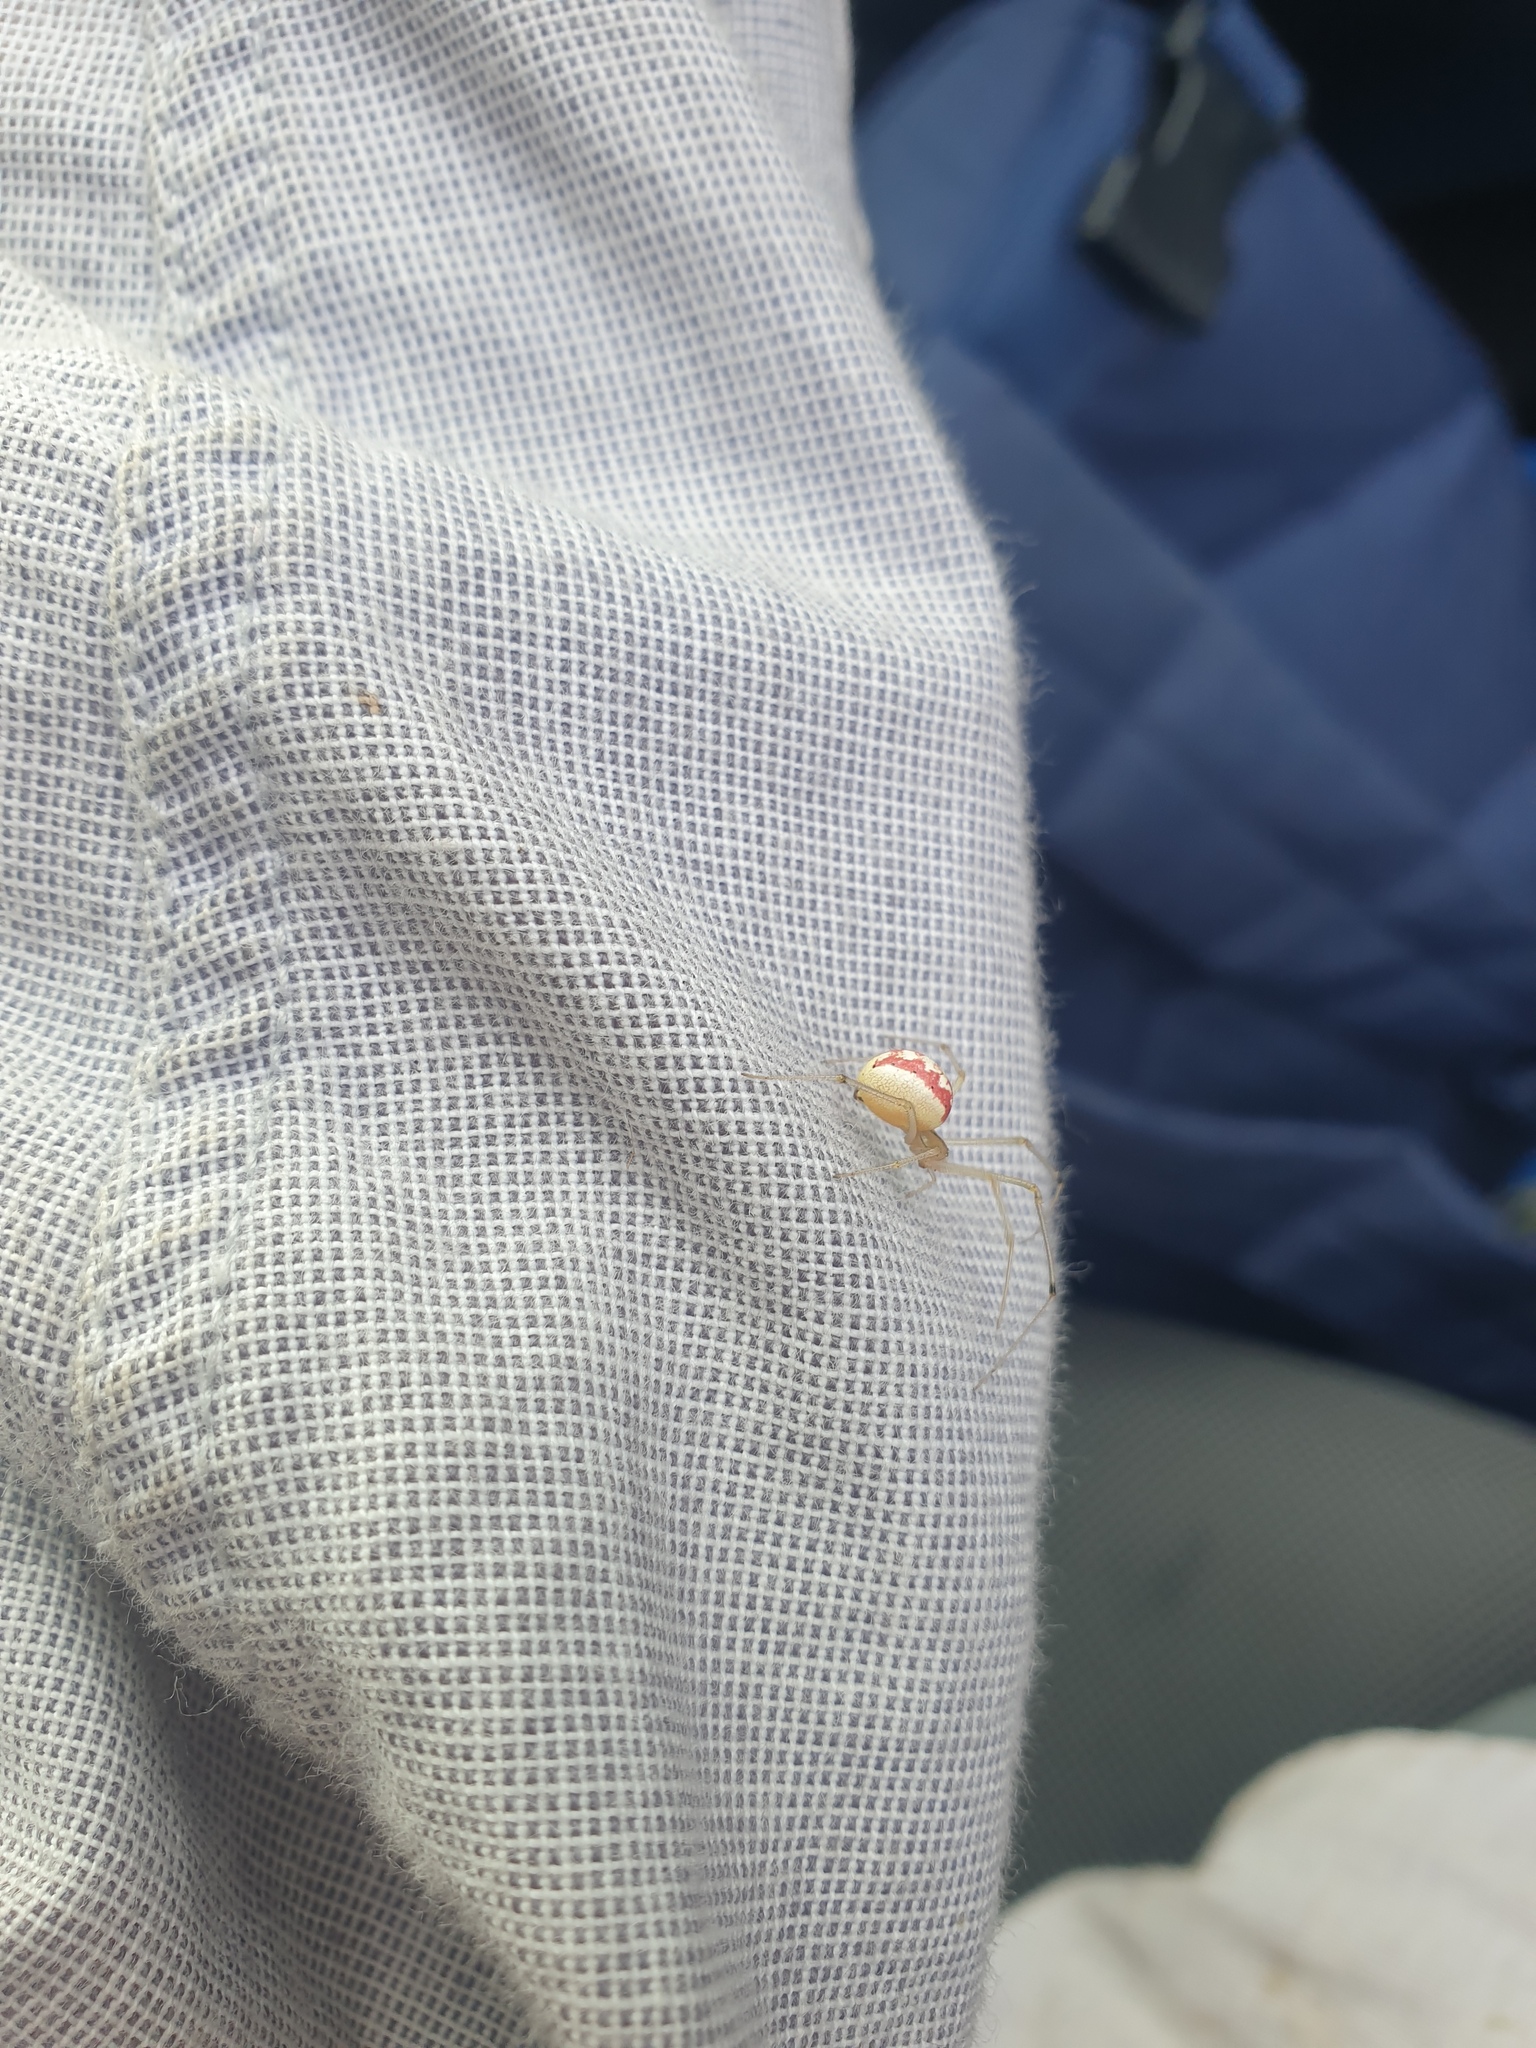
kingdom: Animalia
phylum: Arthropoda
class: Arachnida
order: Araneae
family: Theridiidae
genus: Enoplognatha
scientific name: Enoplognatha ovata
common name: Common candy-striped spider
